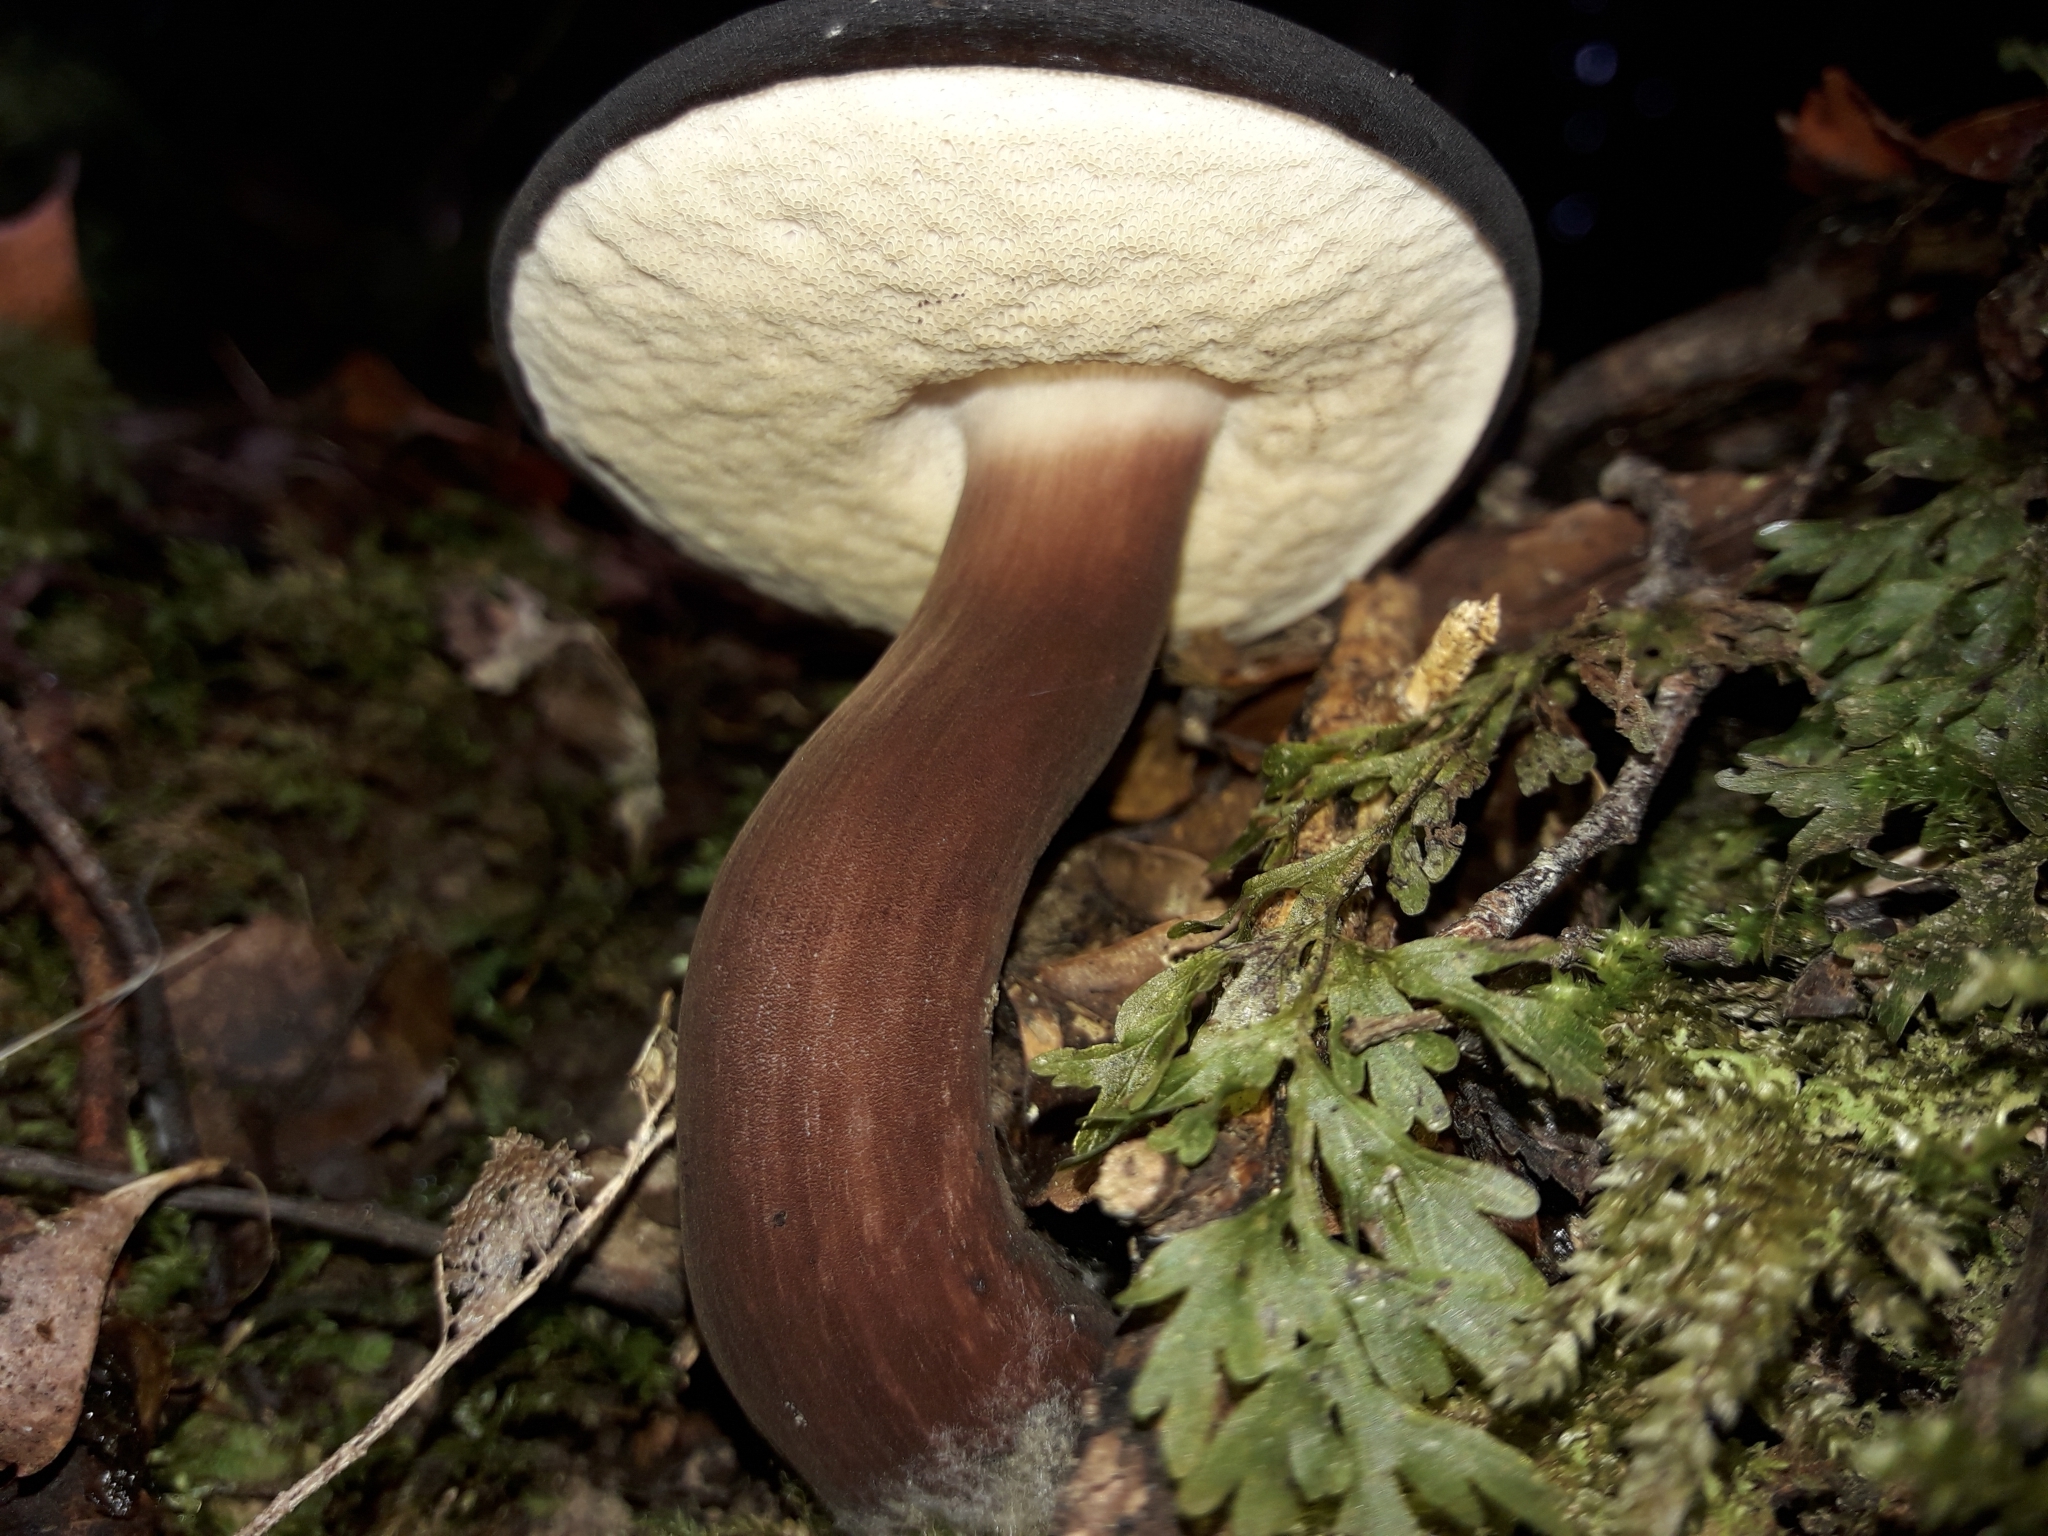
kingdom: Fungi
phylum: Basidiomycota
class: Agaricomycetes
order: Boletales
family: Boletaceae
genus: Porphyrellus
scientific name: Porphyrellus formosus
